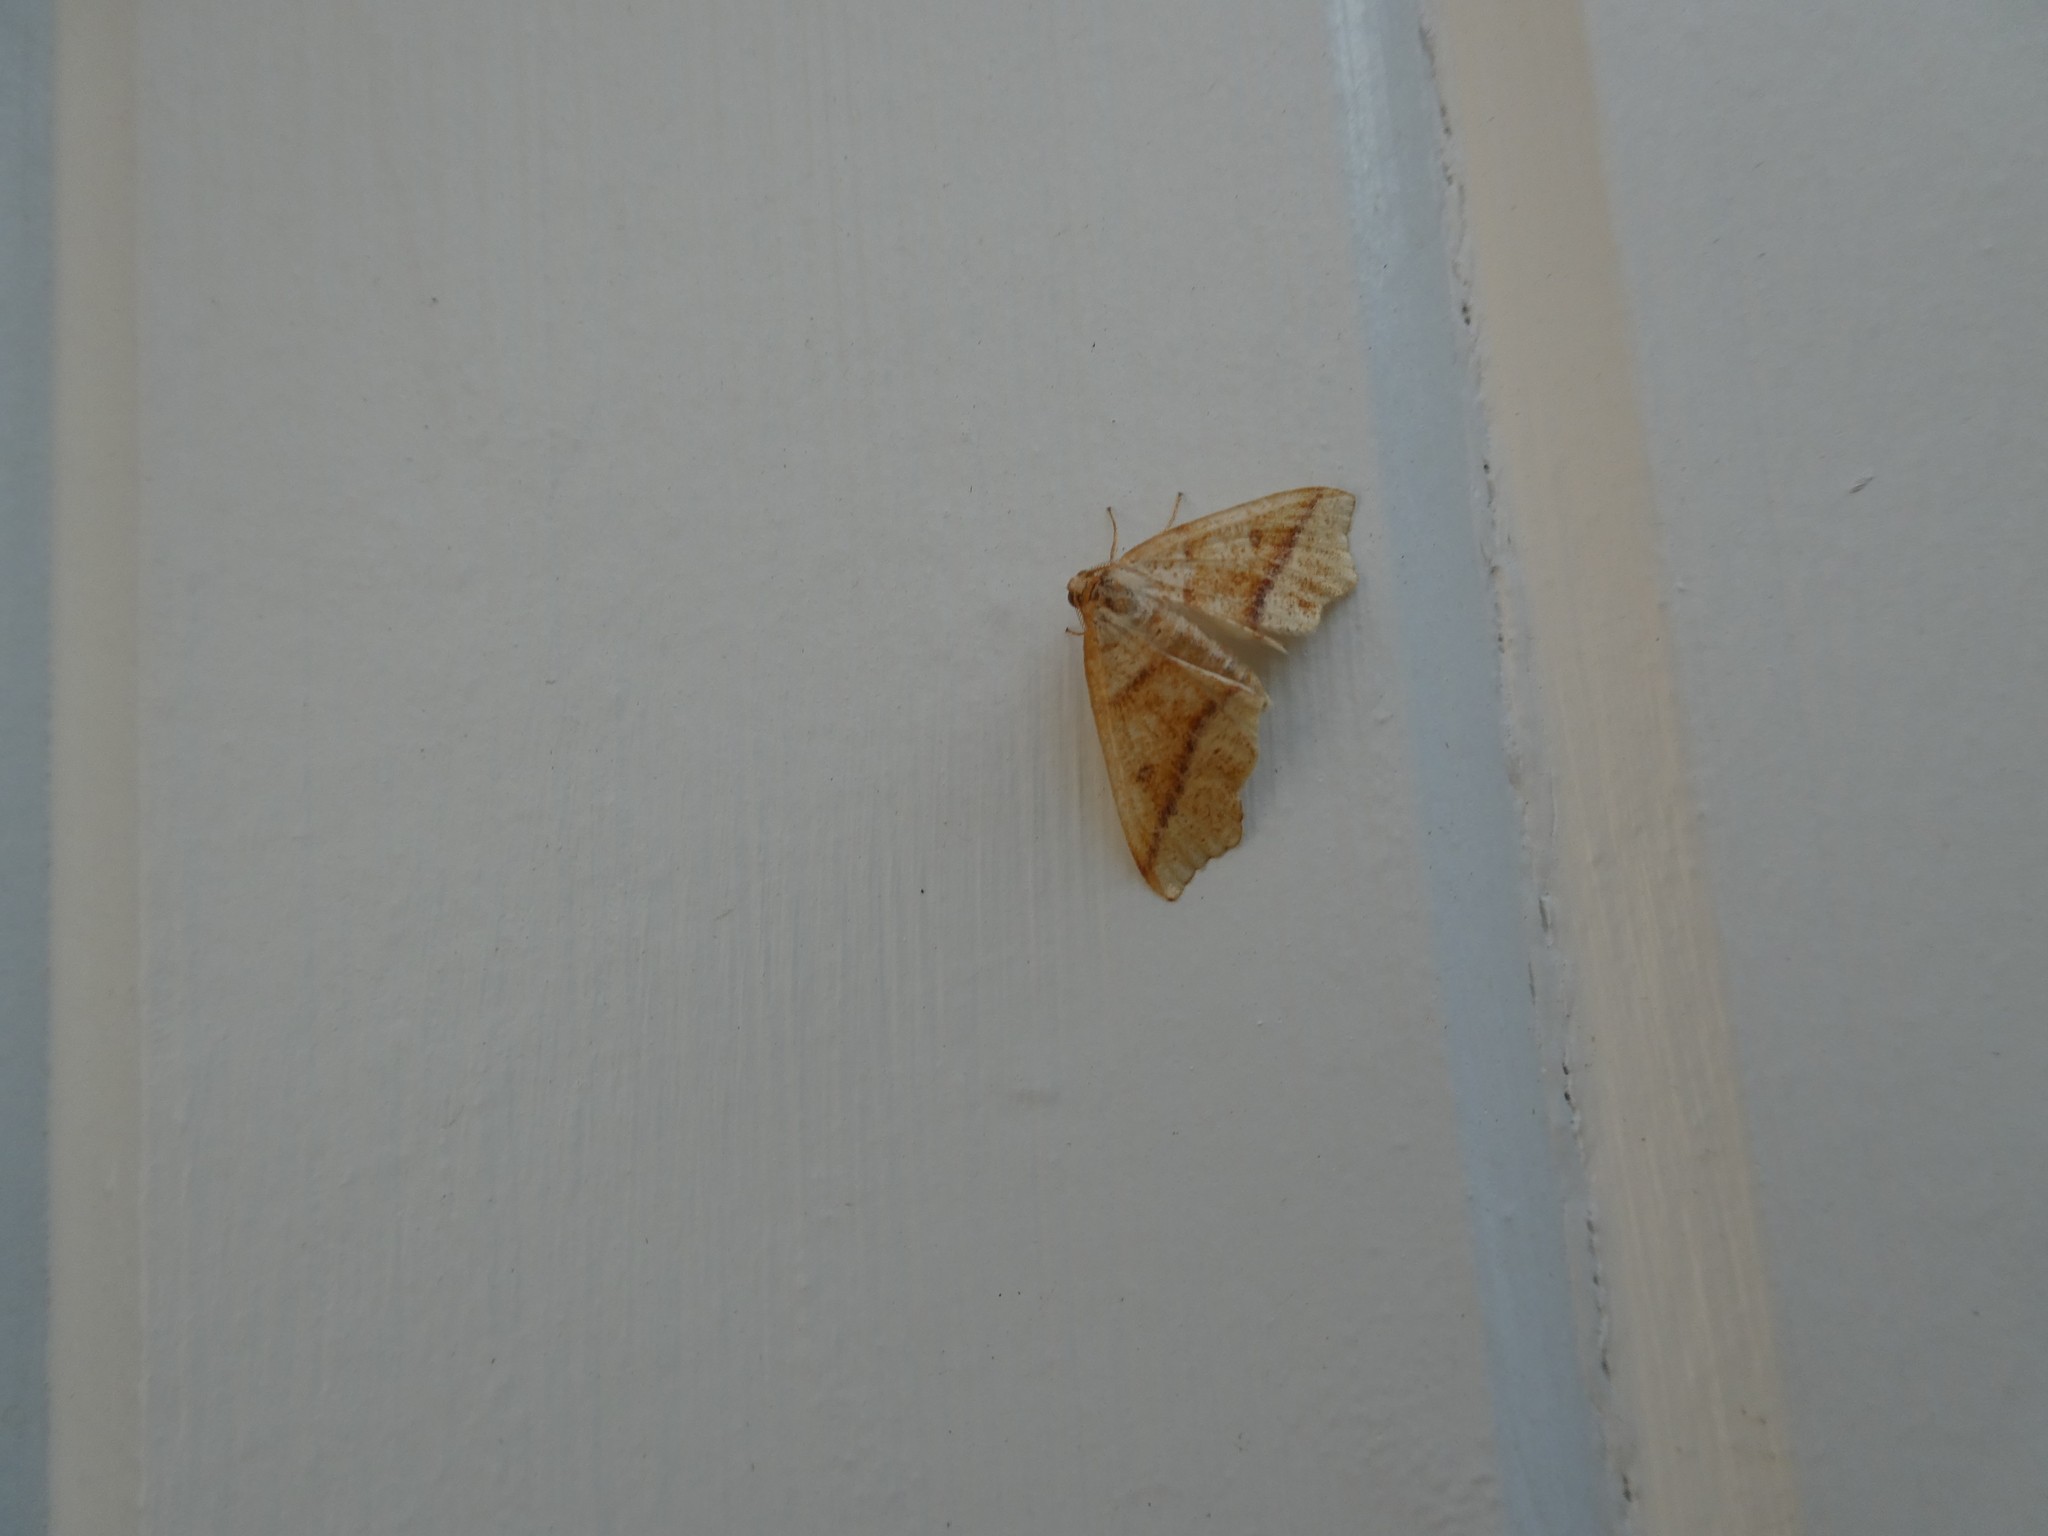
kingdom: Animalia
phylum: Arthropoda
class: Insecta
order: Lepidoptera
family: Geometridae
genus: Plagodis
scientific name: Plagodis alcoolaria
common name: Hollow-spotted plagodis
